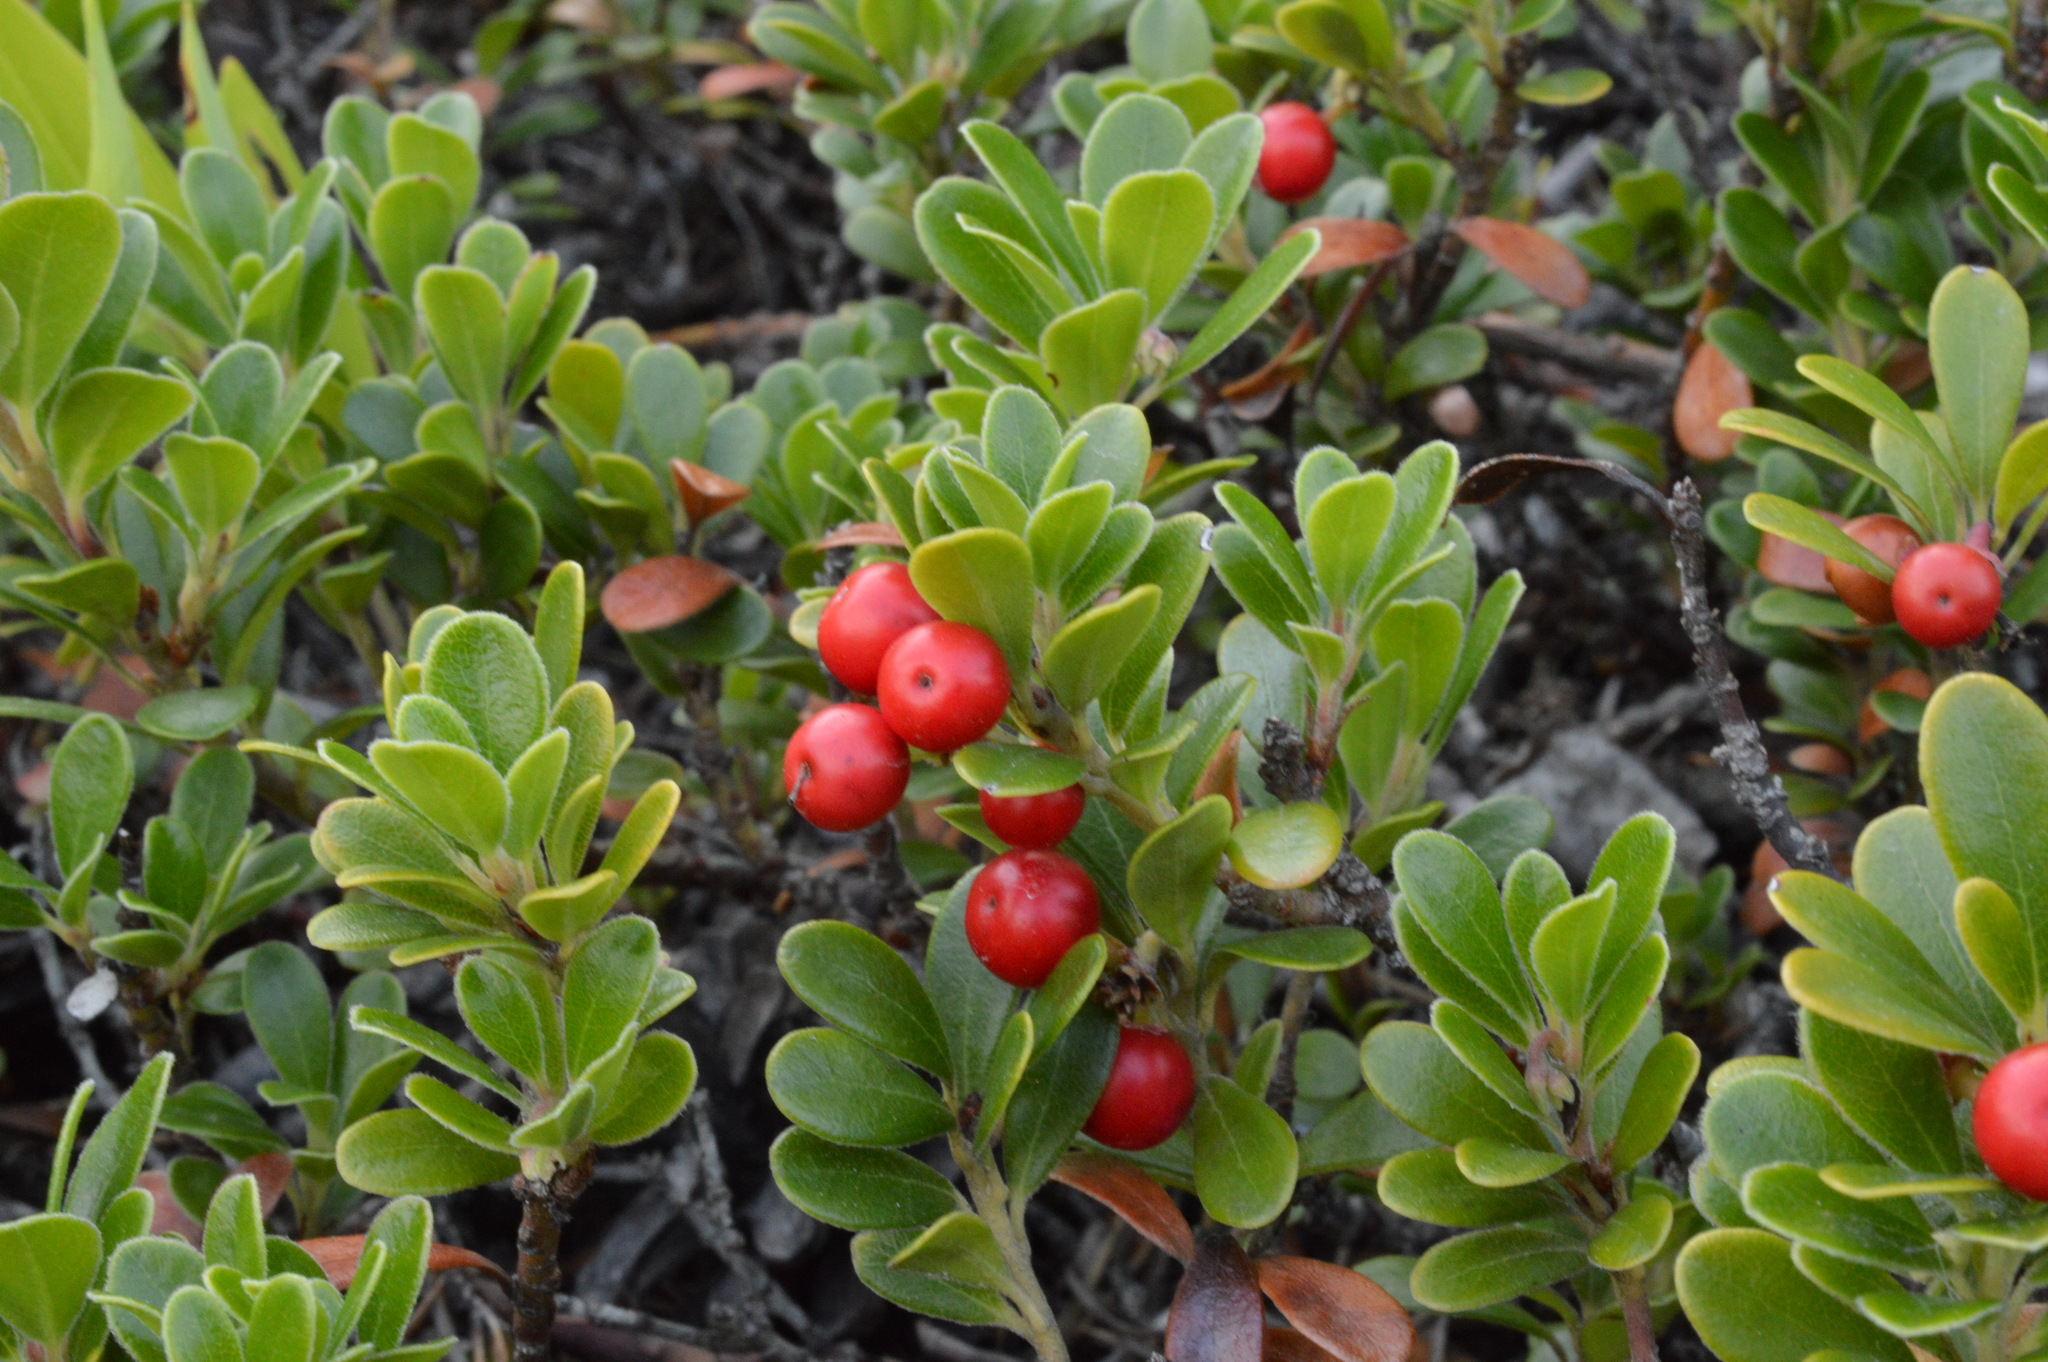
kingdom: Plantae
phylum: Tracheophyta
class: Magnoliopsida
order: Ericales
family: Ericaceae
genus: Arctostaphylos
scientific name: Arctostaphylos uva-ursi
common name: Bearberry
